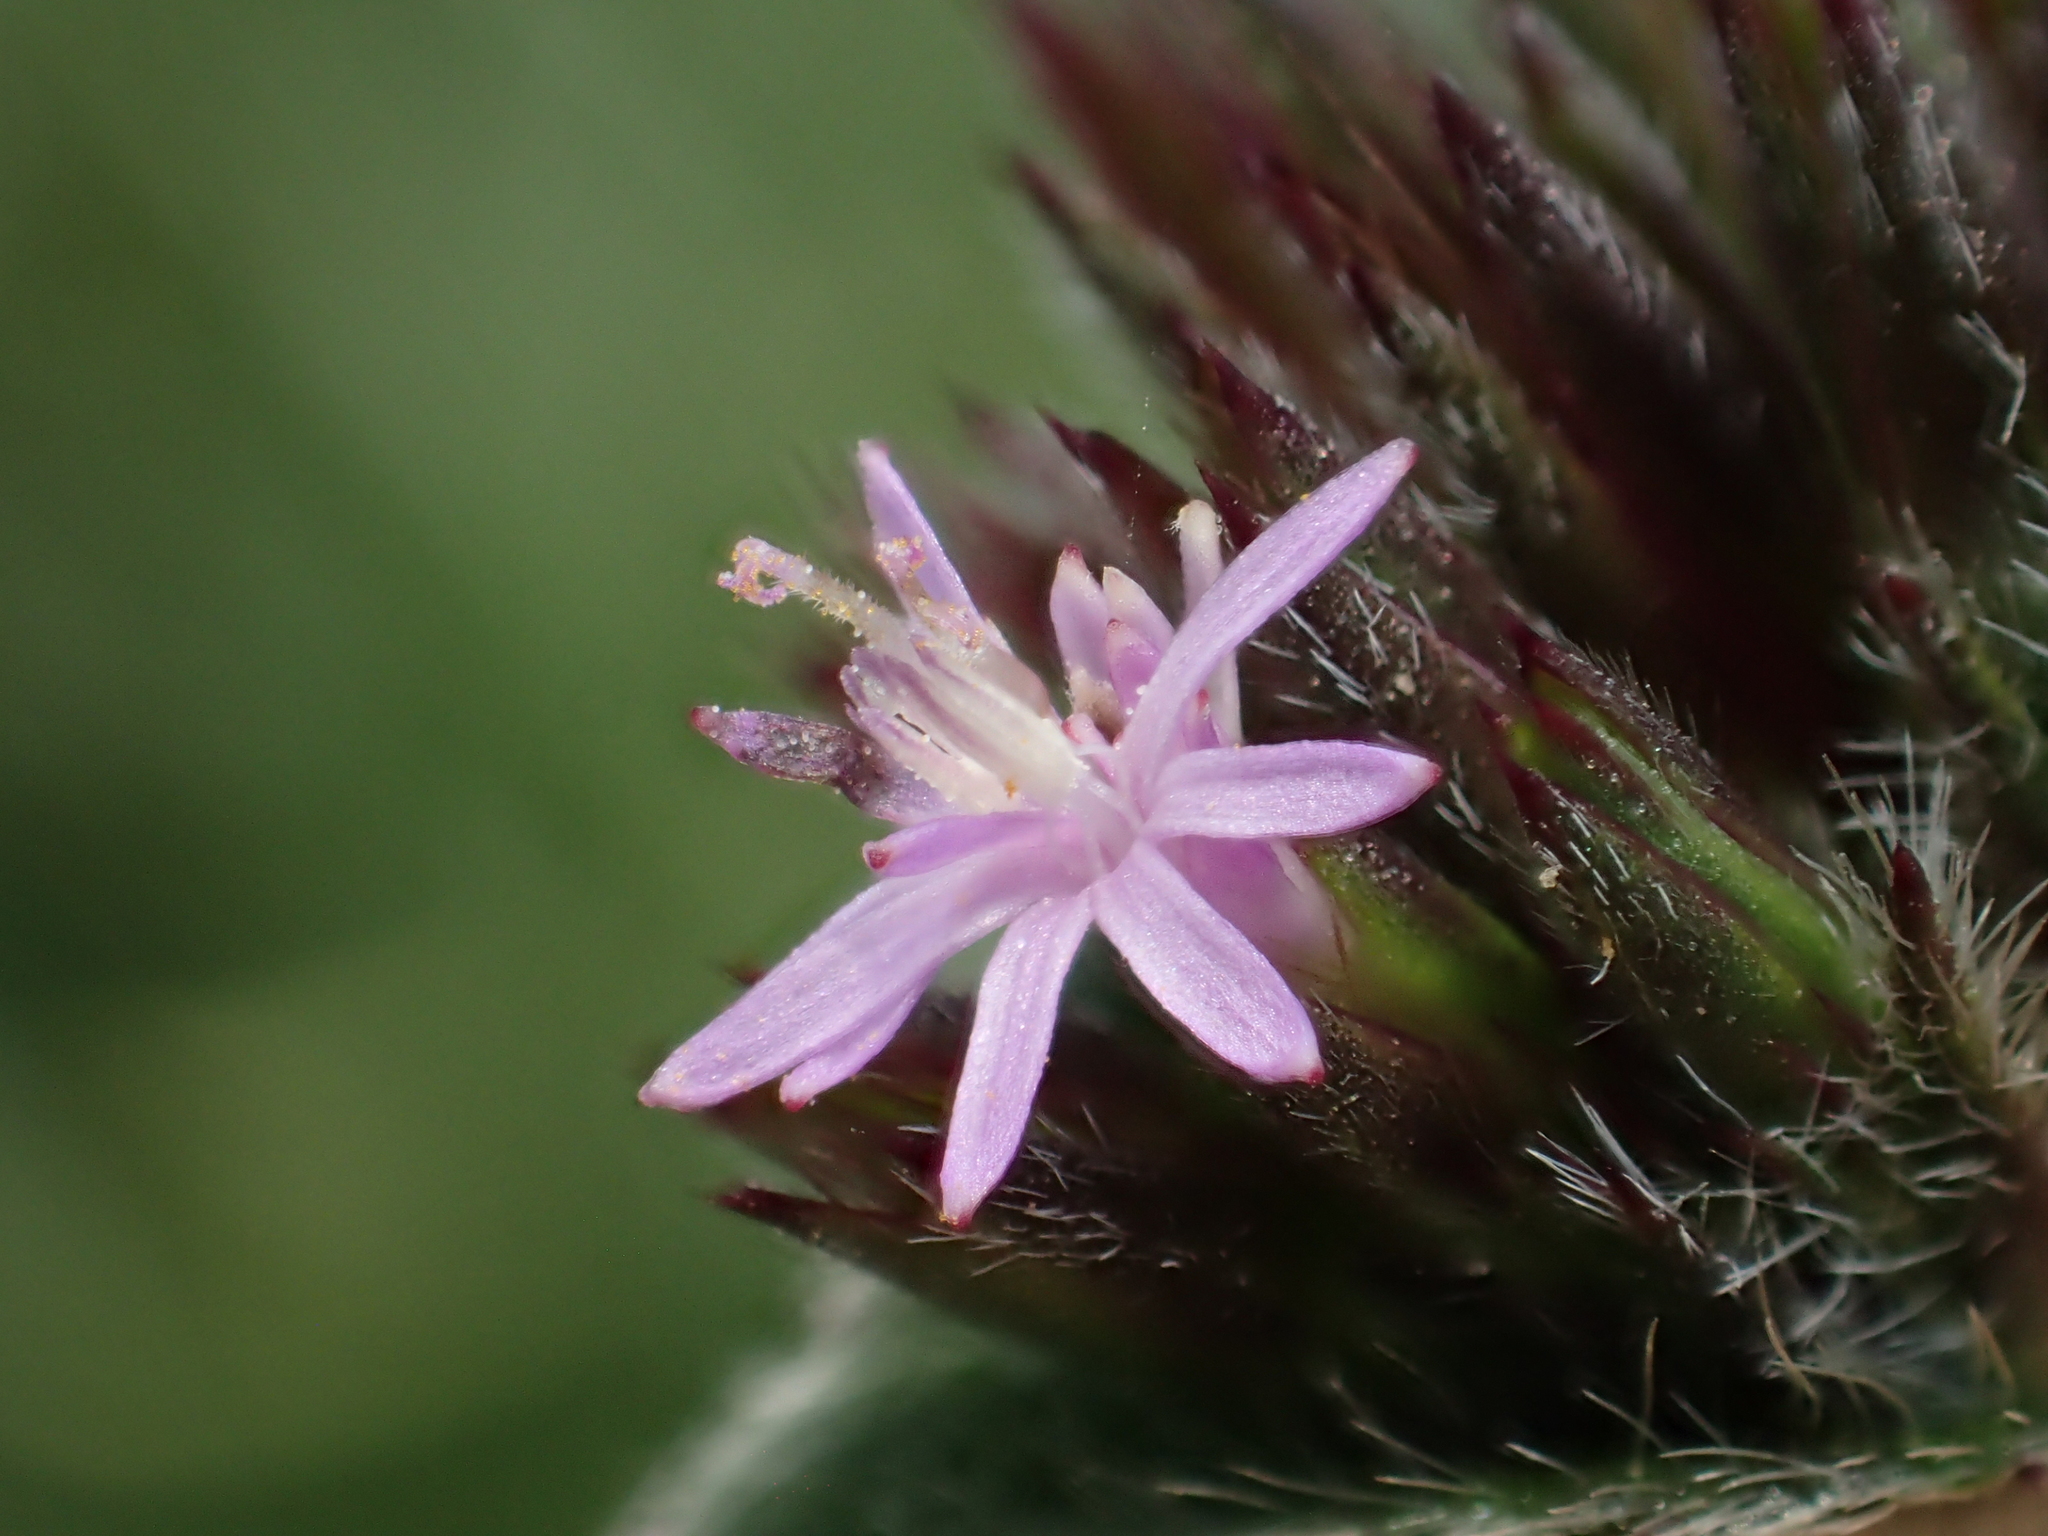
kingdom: Plantae
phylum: Tracheophyta
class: Magnoliopsida
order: Asterales
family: Asteraceae
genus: Elephantopus
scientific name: Elephantopus scaber
